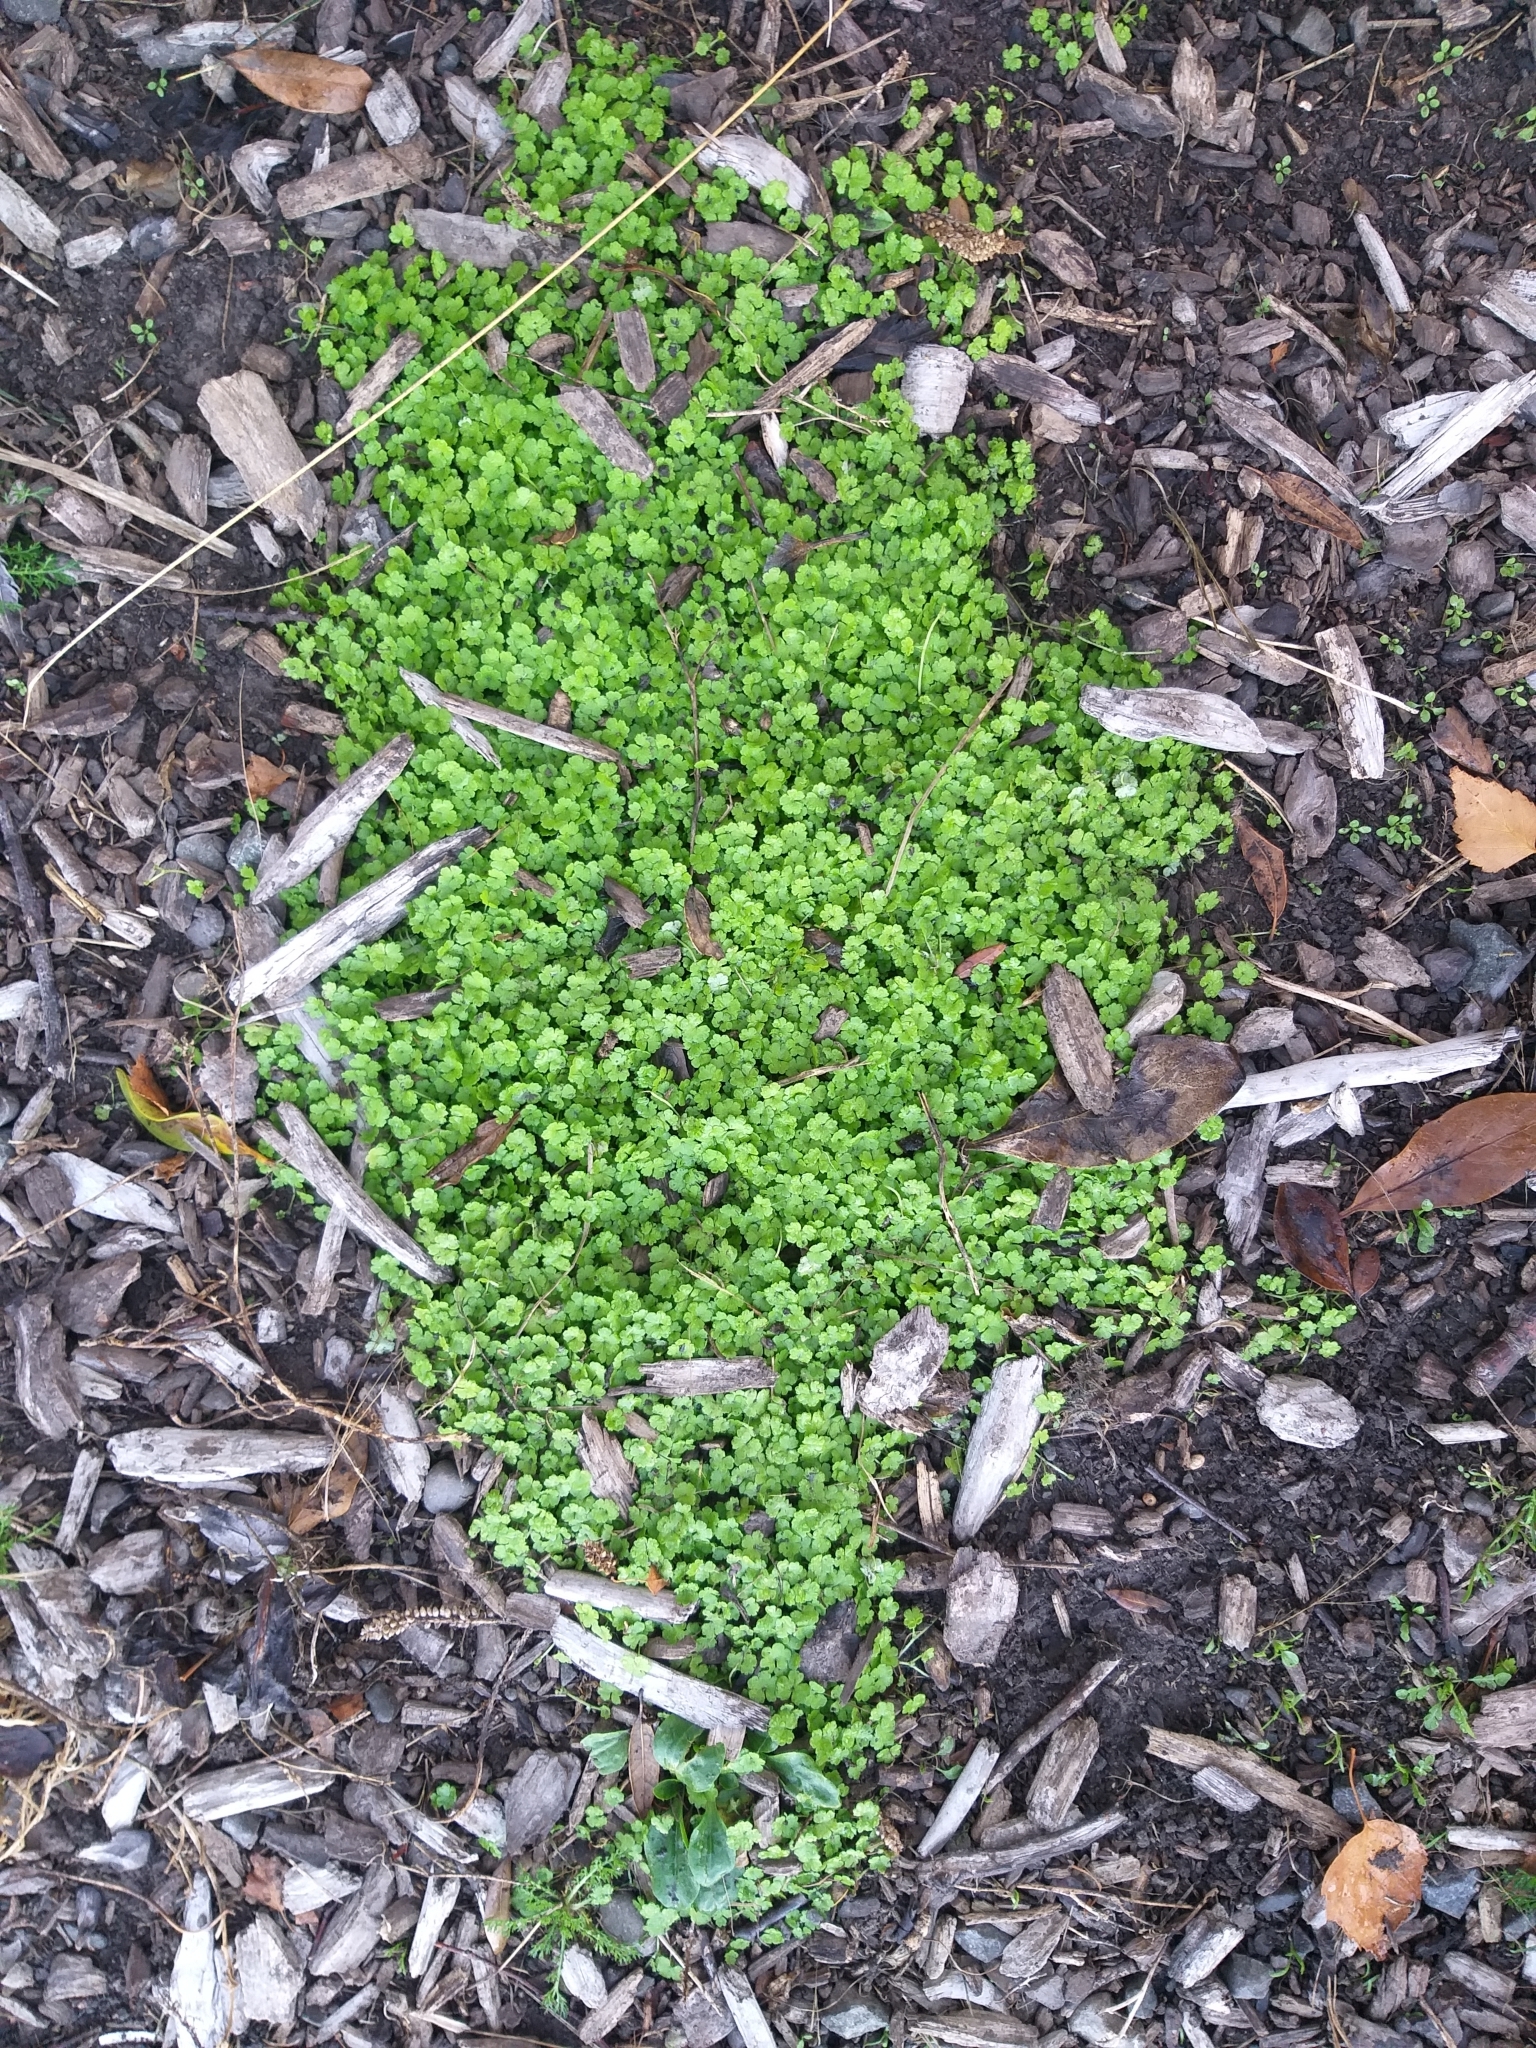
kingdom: Plantae
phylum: Tracheophyta
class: Magnoliopsida
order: Apiales
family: Araliaceae
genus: Hydrocotyle
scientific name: Hydrocotyle heteromeria
